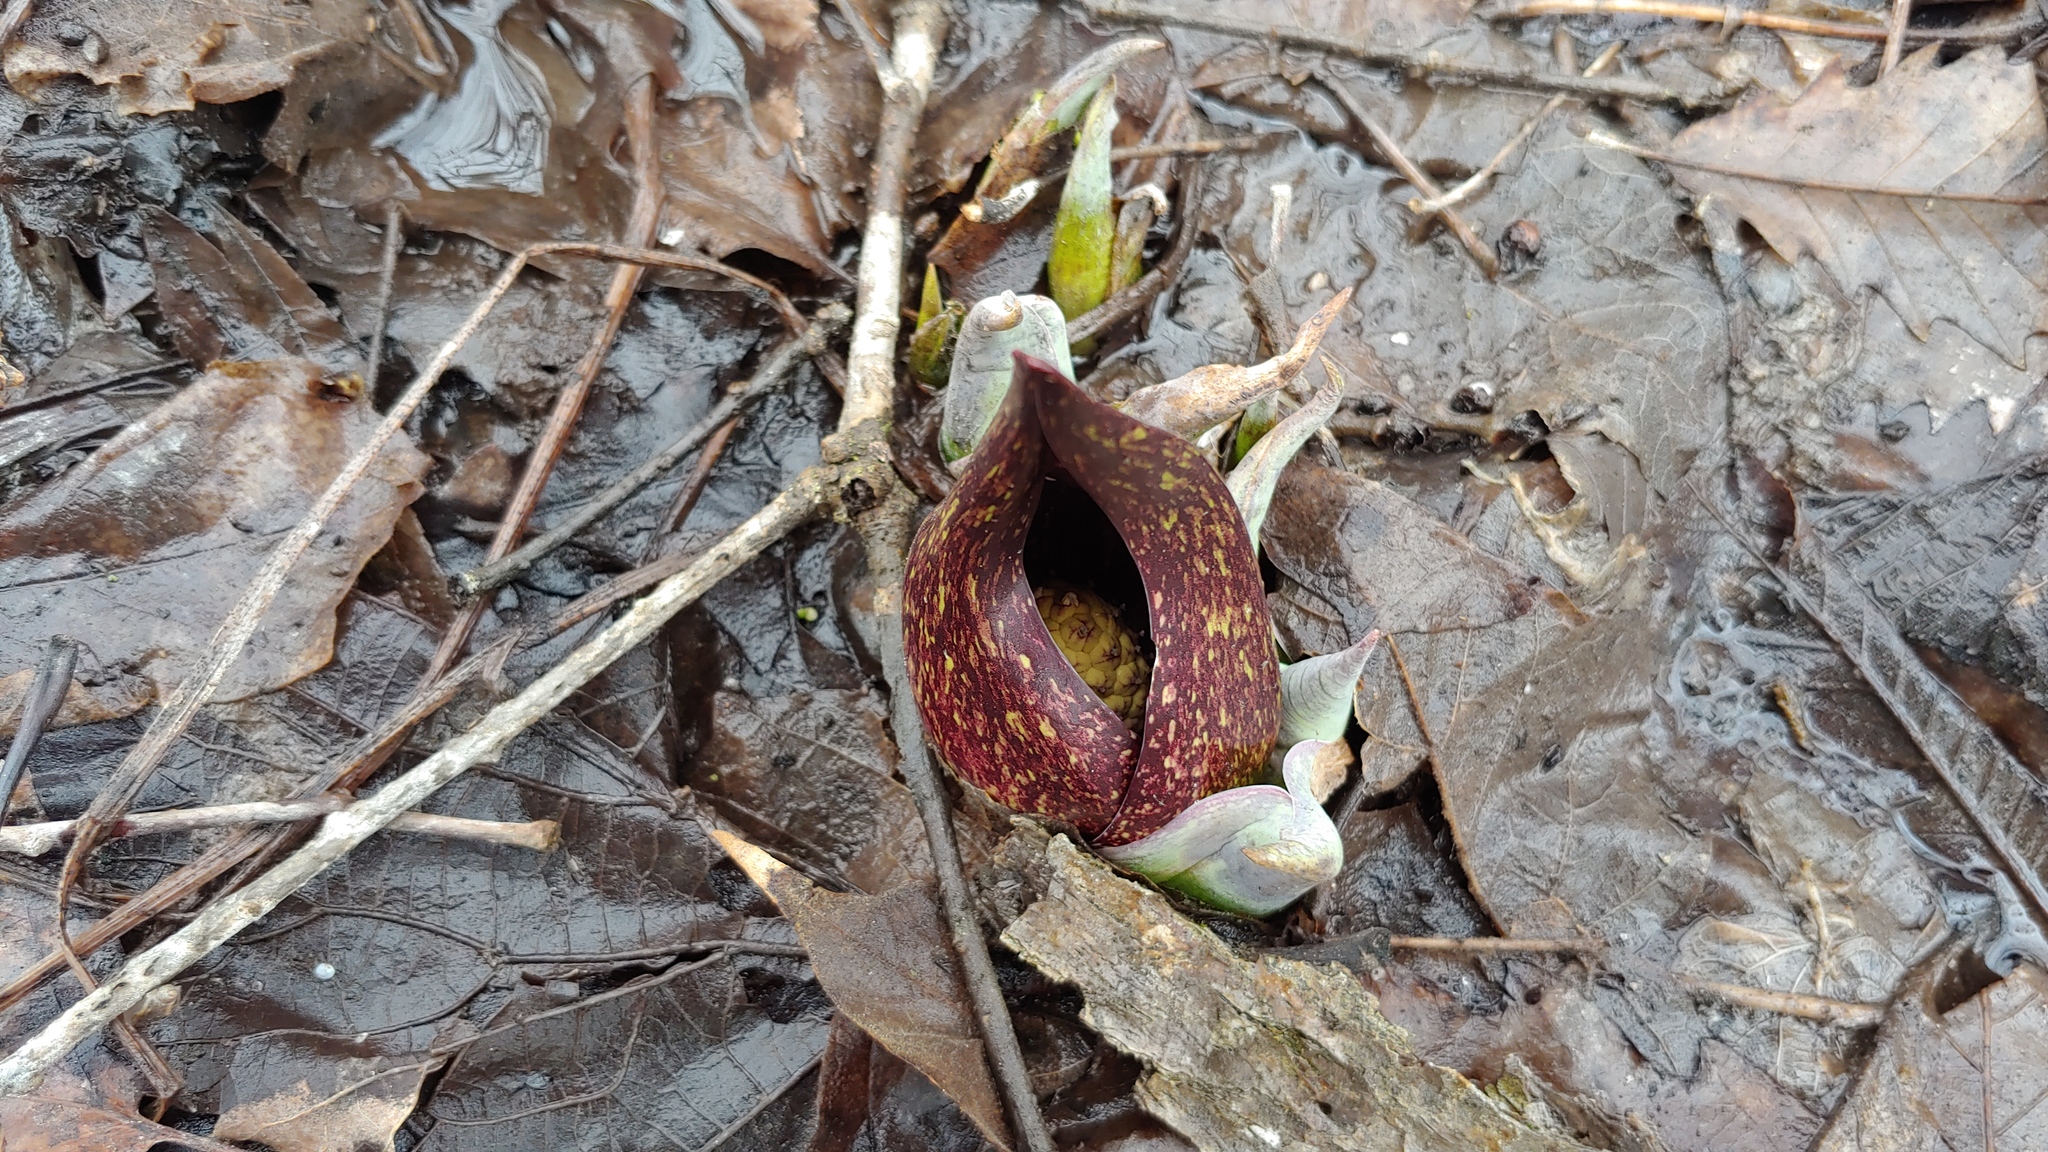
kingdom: Plantae
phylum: Tracheophyta
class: Liliopsida
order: Alismatales
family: Araceae
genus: Symplocarpus
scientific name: Symplocarpus foetidus
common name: Eastern skunk cabbage
